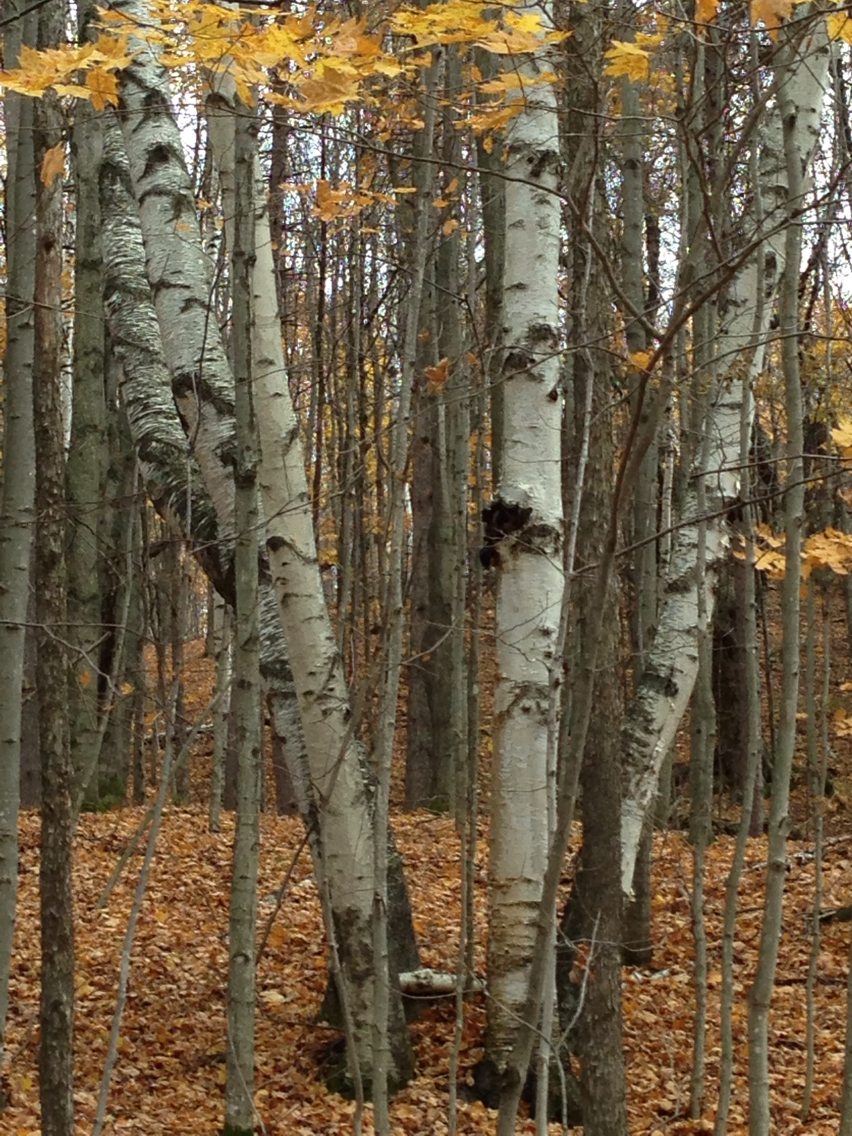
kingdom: Plantae
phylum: Tracheophyta
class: Magnoliopsida
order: Fagales
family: Betulaceae
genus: Betula
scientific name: Betula populifolia
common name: Fire birch
